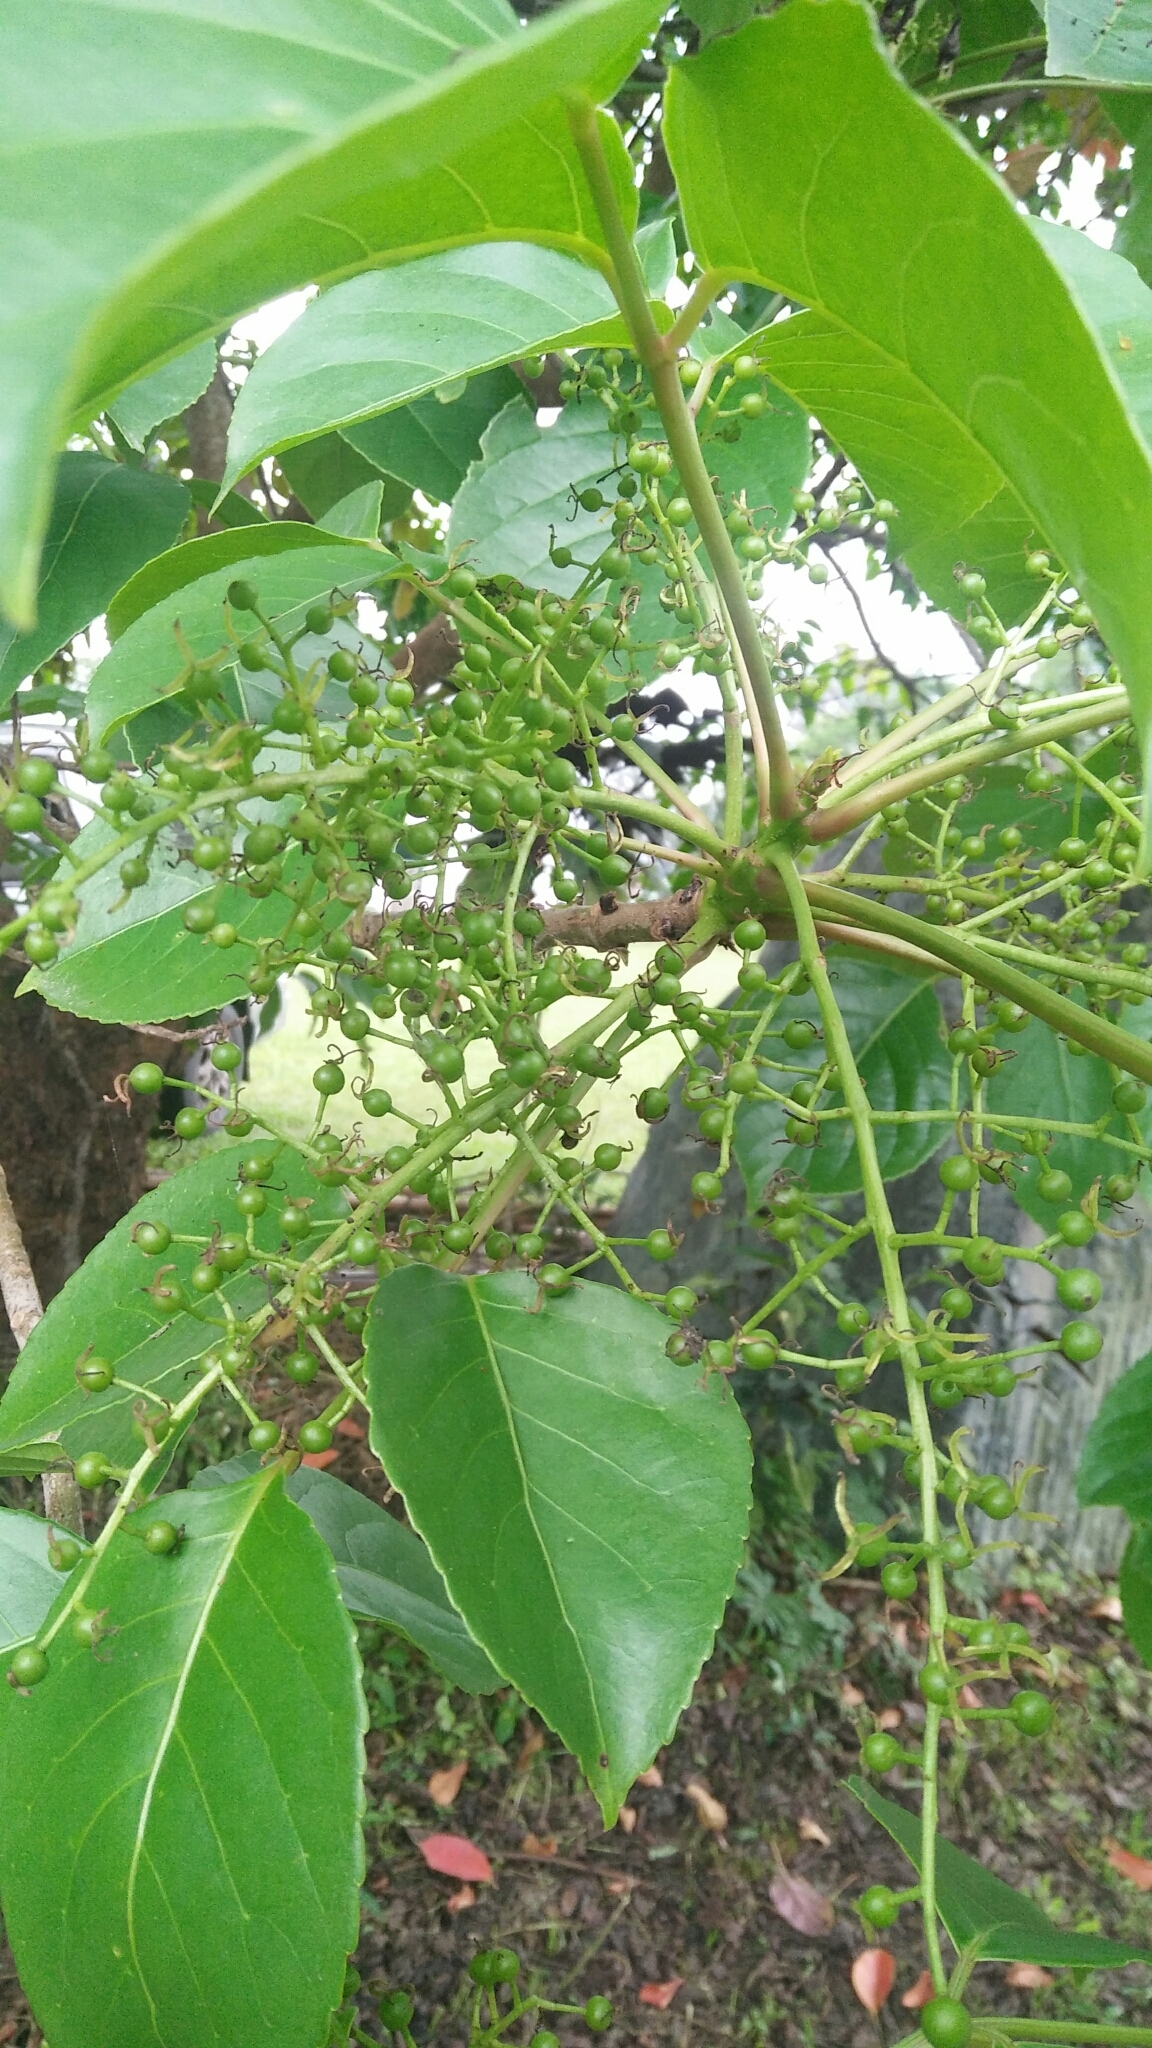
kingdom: Plantae
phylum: Tracheophyta
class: Magnoliopsida
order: Malpighiales
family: Phyllanthaceae
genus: Bischofia
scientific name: Bischofia javanica
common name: Javanese bishopwood
